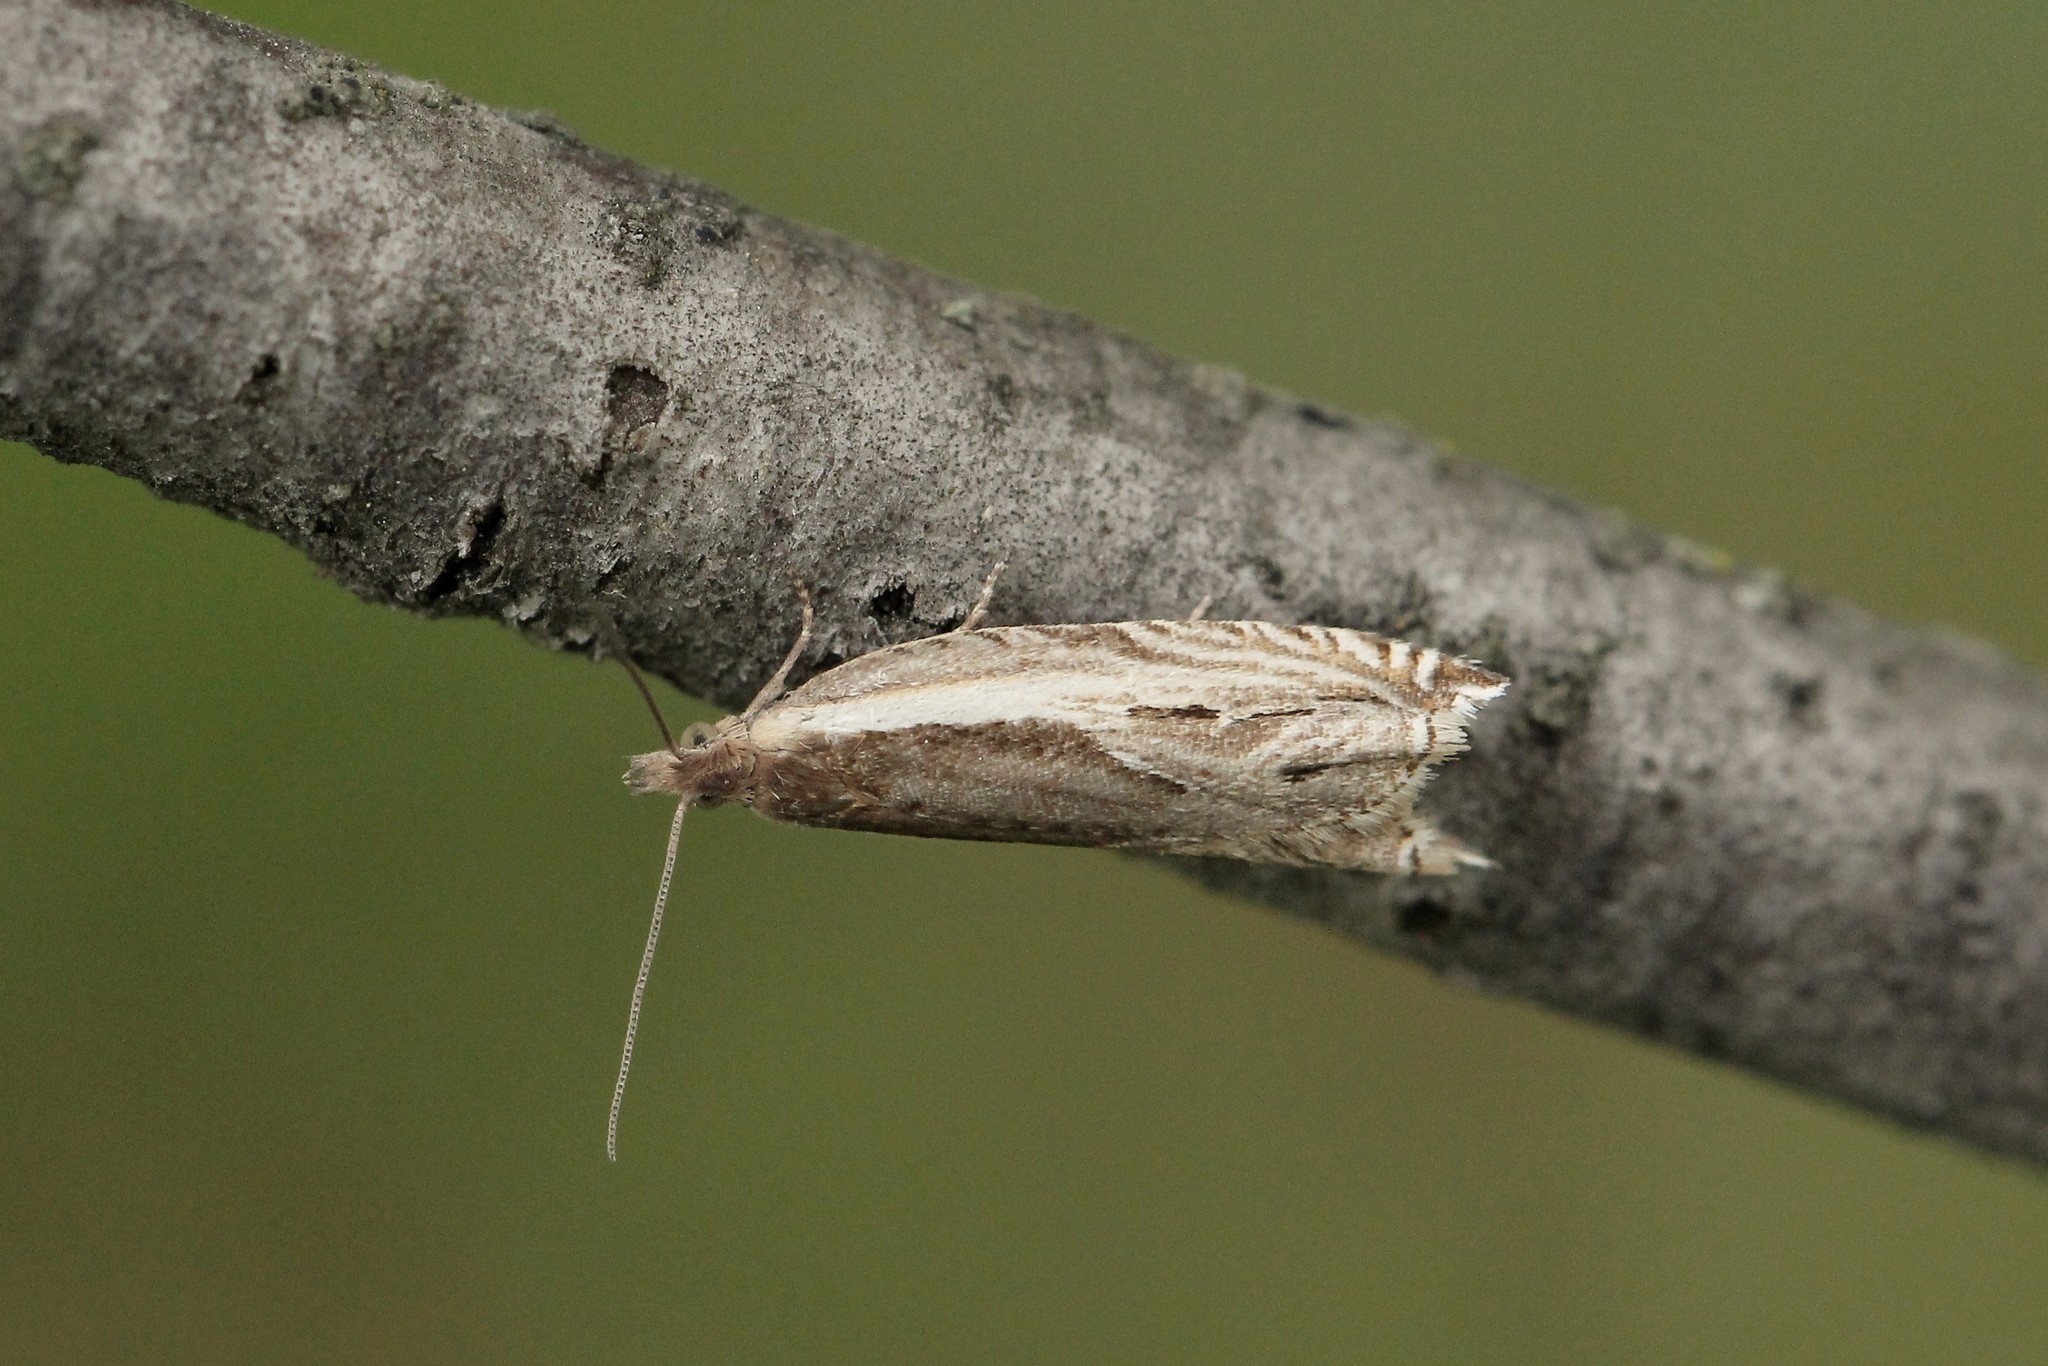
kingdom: Animalia
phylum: Arthropoda
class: Insecta
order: Lepidoptera
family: Tortricidae
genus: Ancylis
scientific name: Ancylis apicella
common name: Hook-tipped roller
